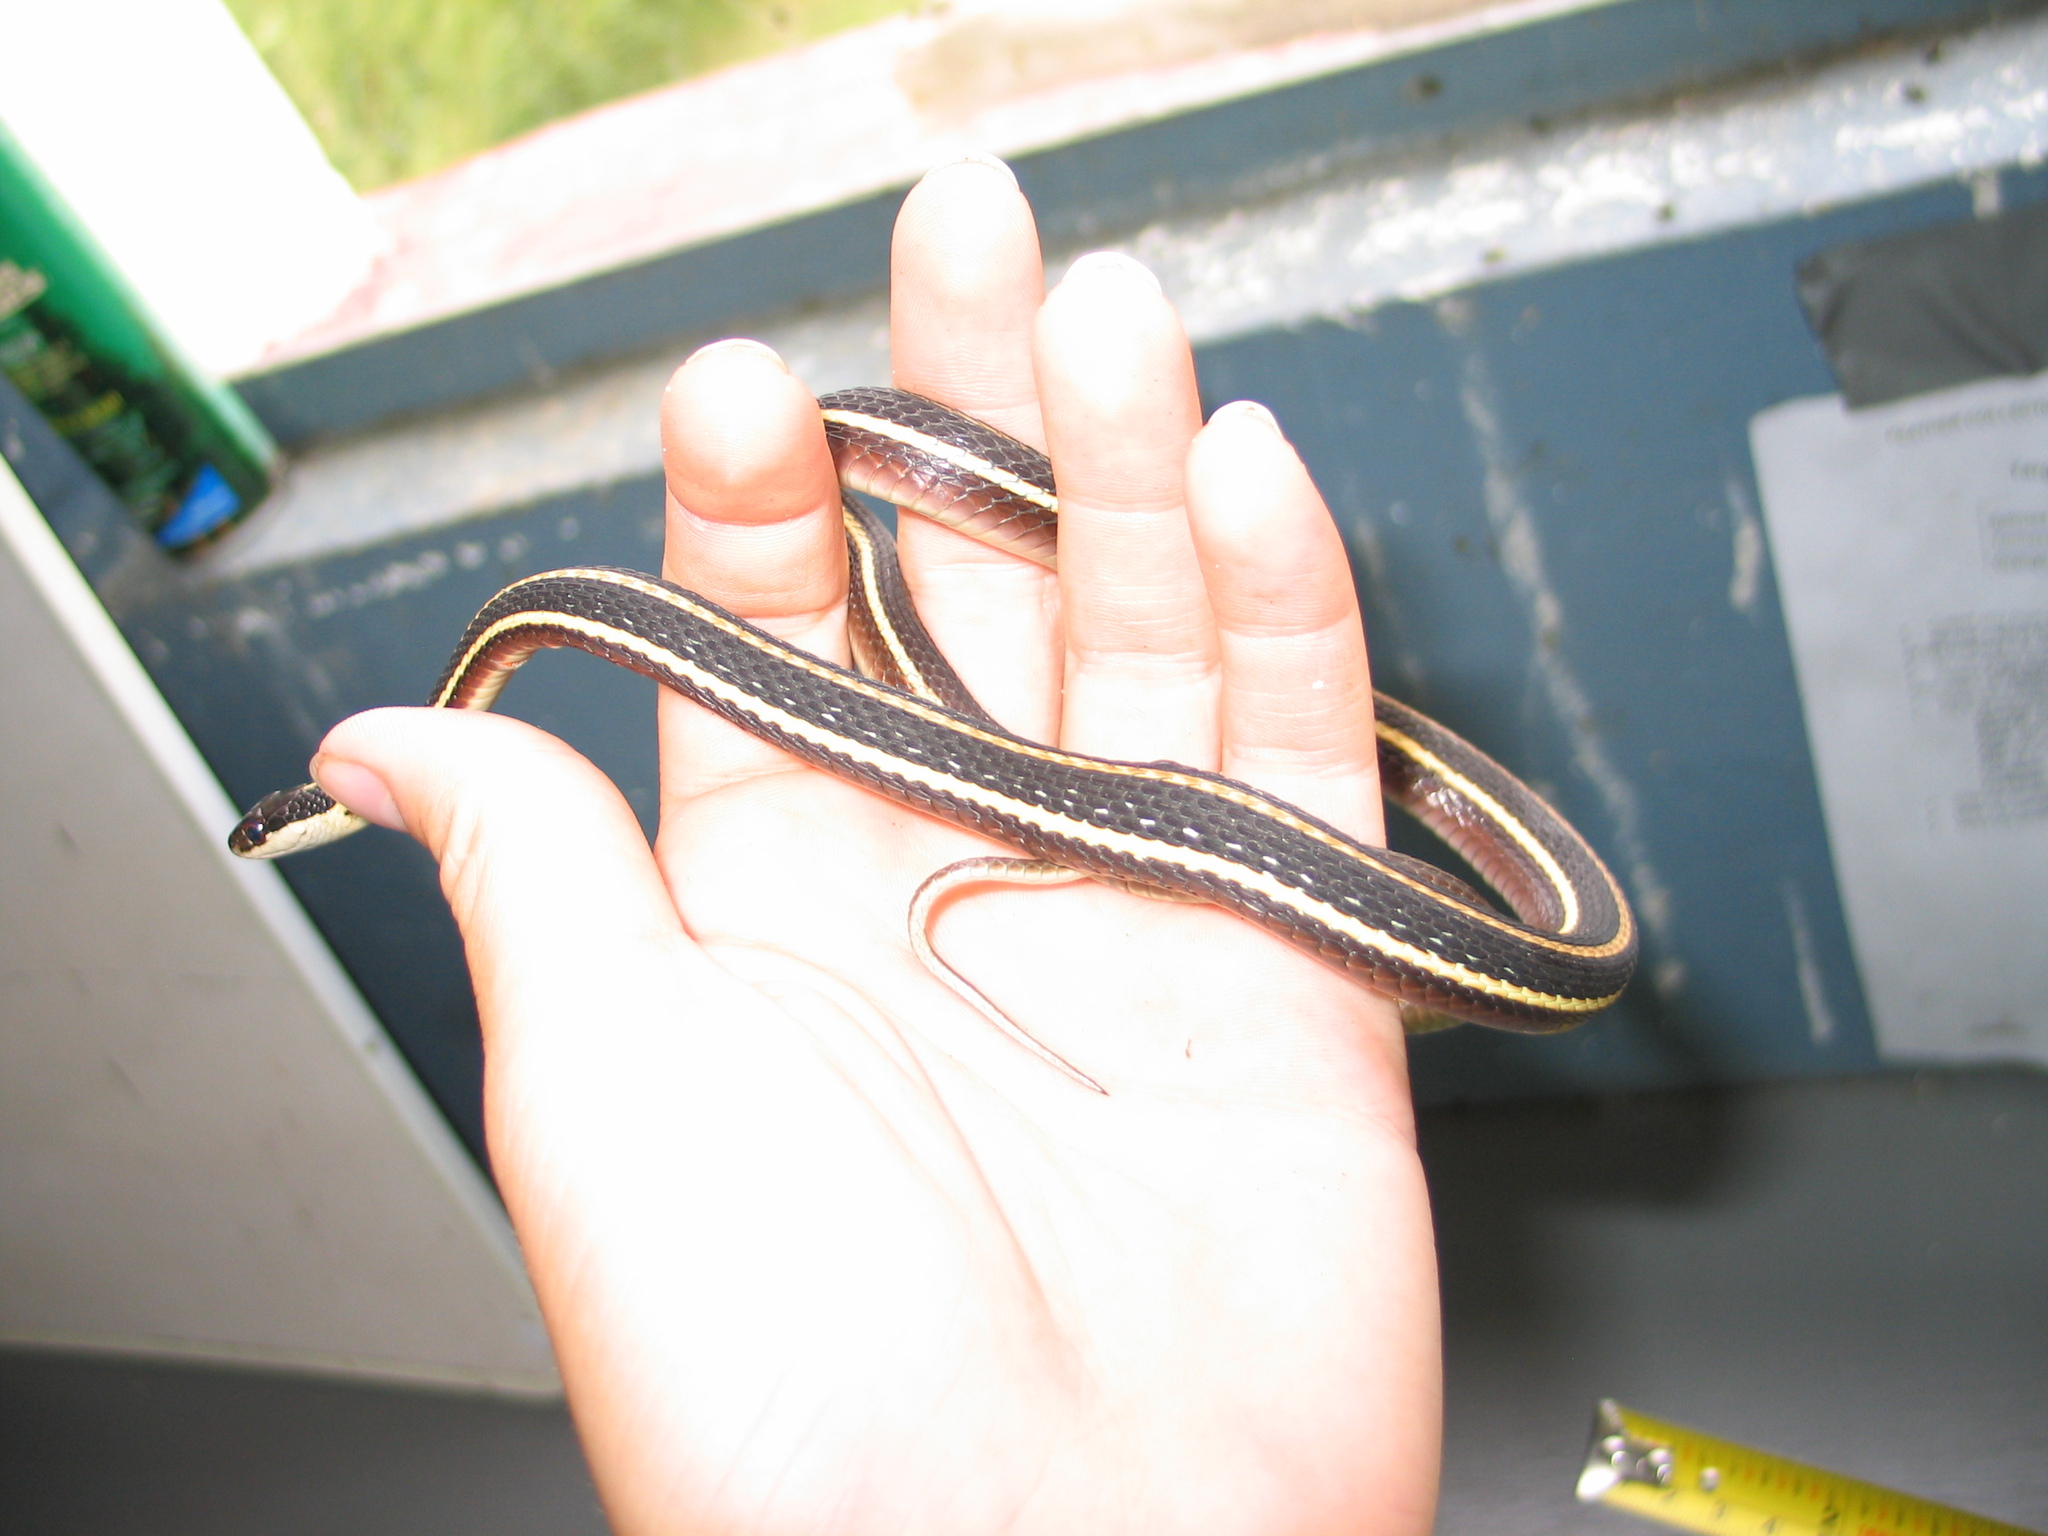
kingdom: Animalia
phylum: Chordata
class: Squamata
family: Colubridae
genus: Thamnophis
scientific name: Thamnophis saurita
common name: Eastern ribbonsnake
